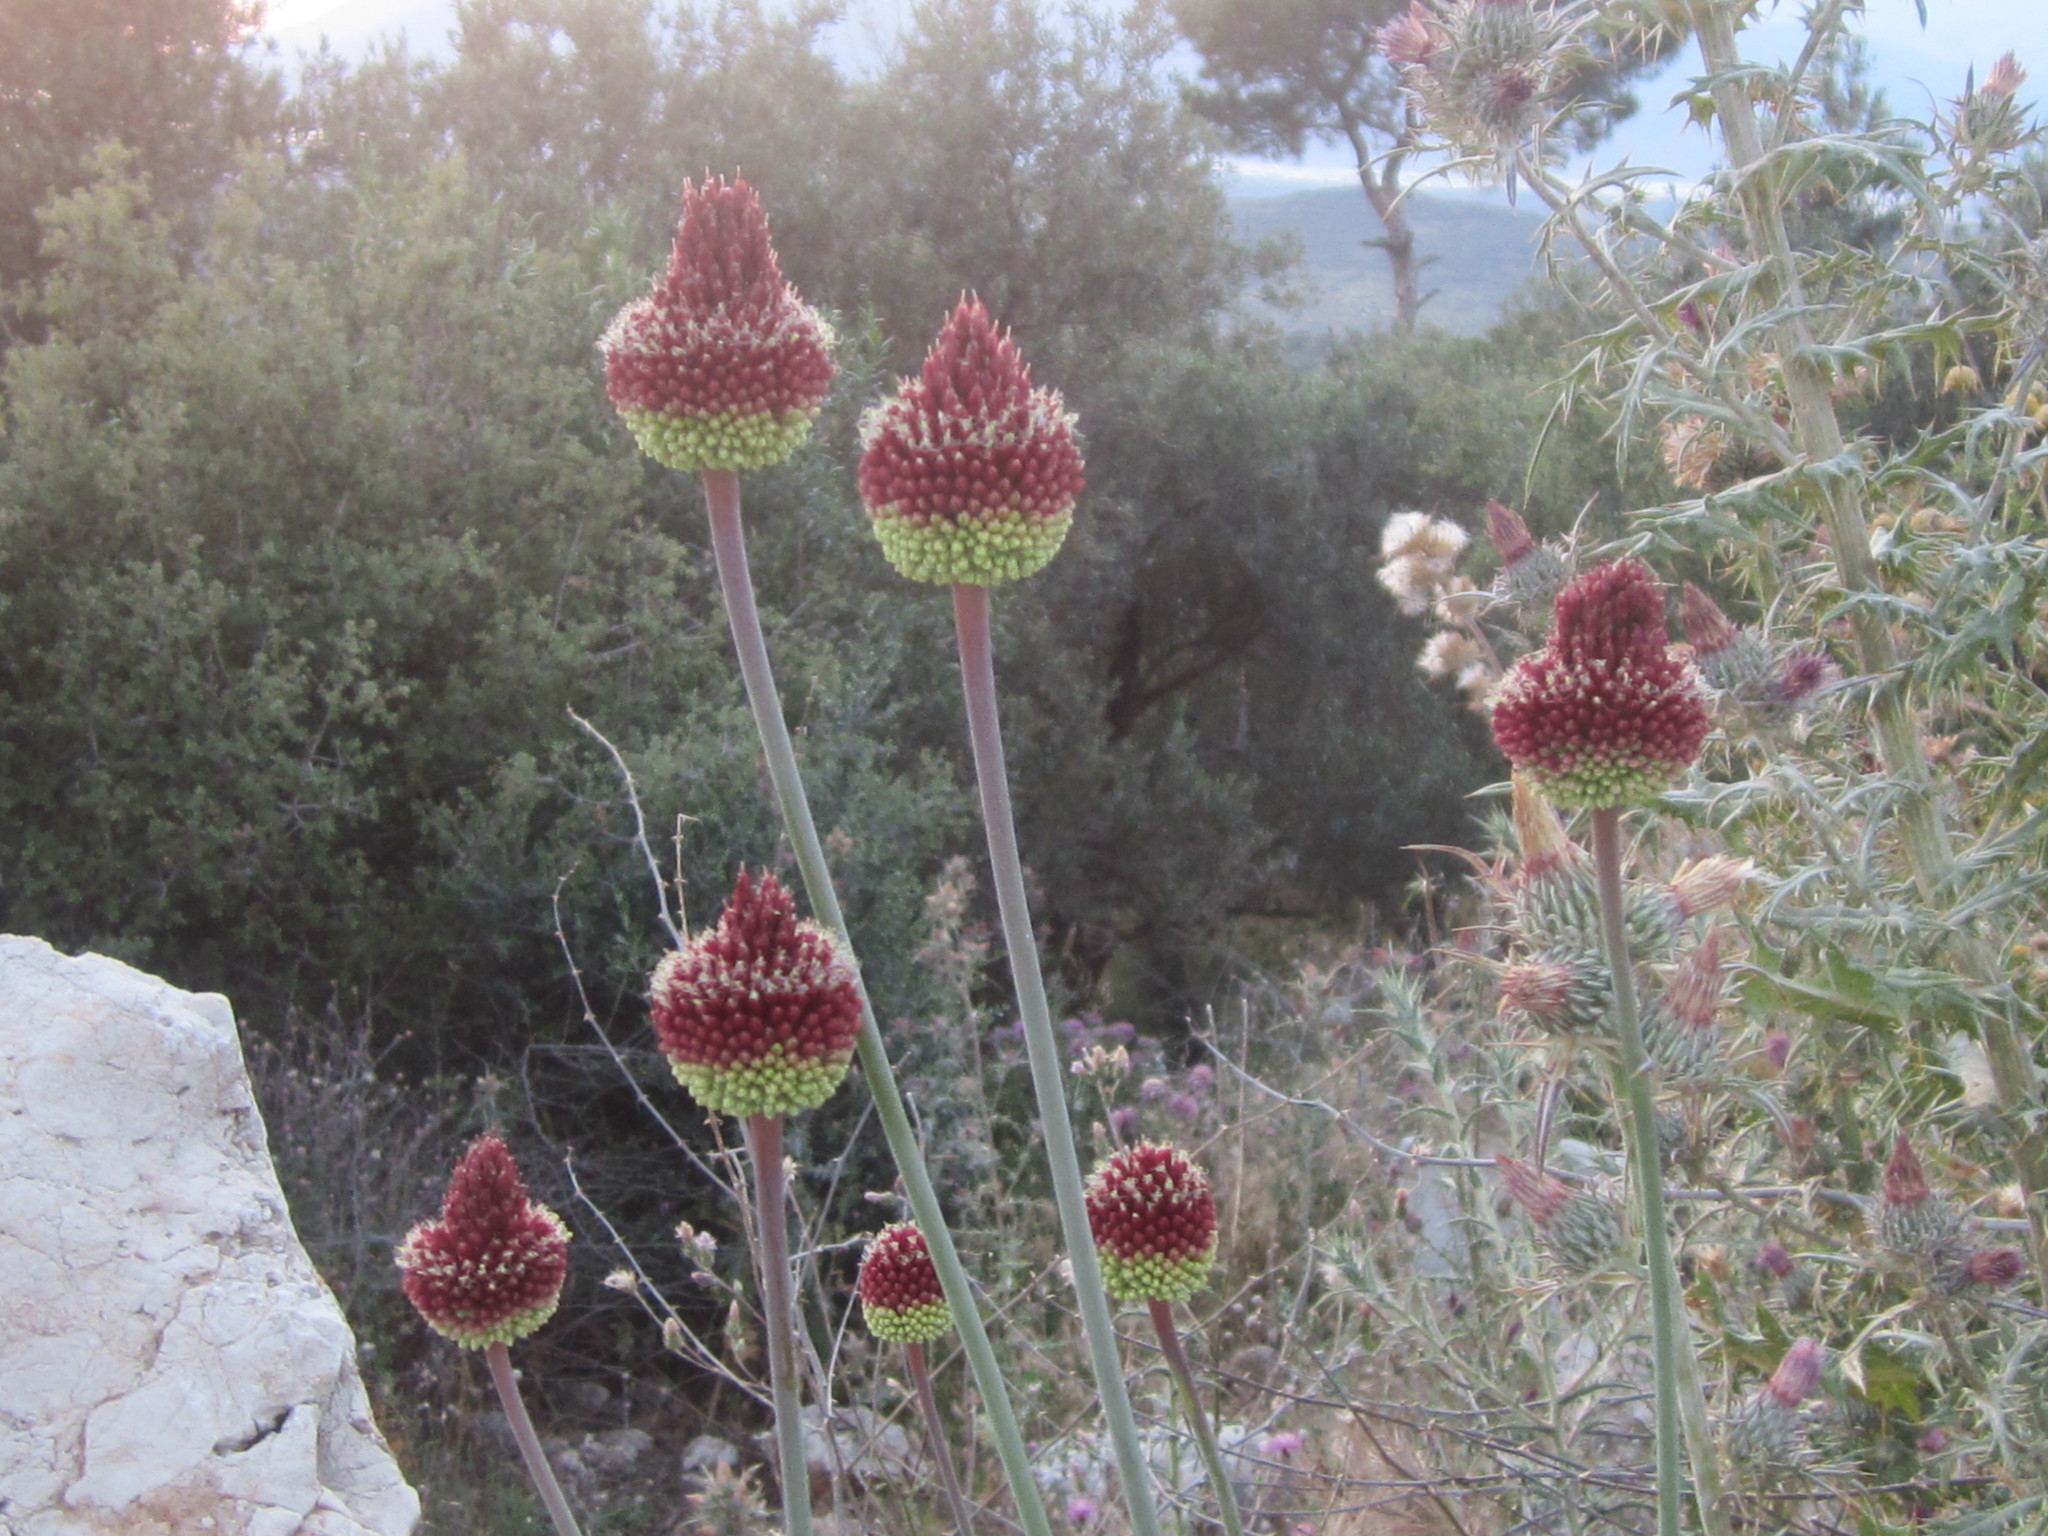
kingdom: Plantae
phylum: Tracheophyta
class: Liliopsida
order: Asparagales
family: Amaryllidaceae
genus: Allium
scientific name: Allium amethystinum
